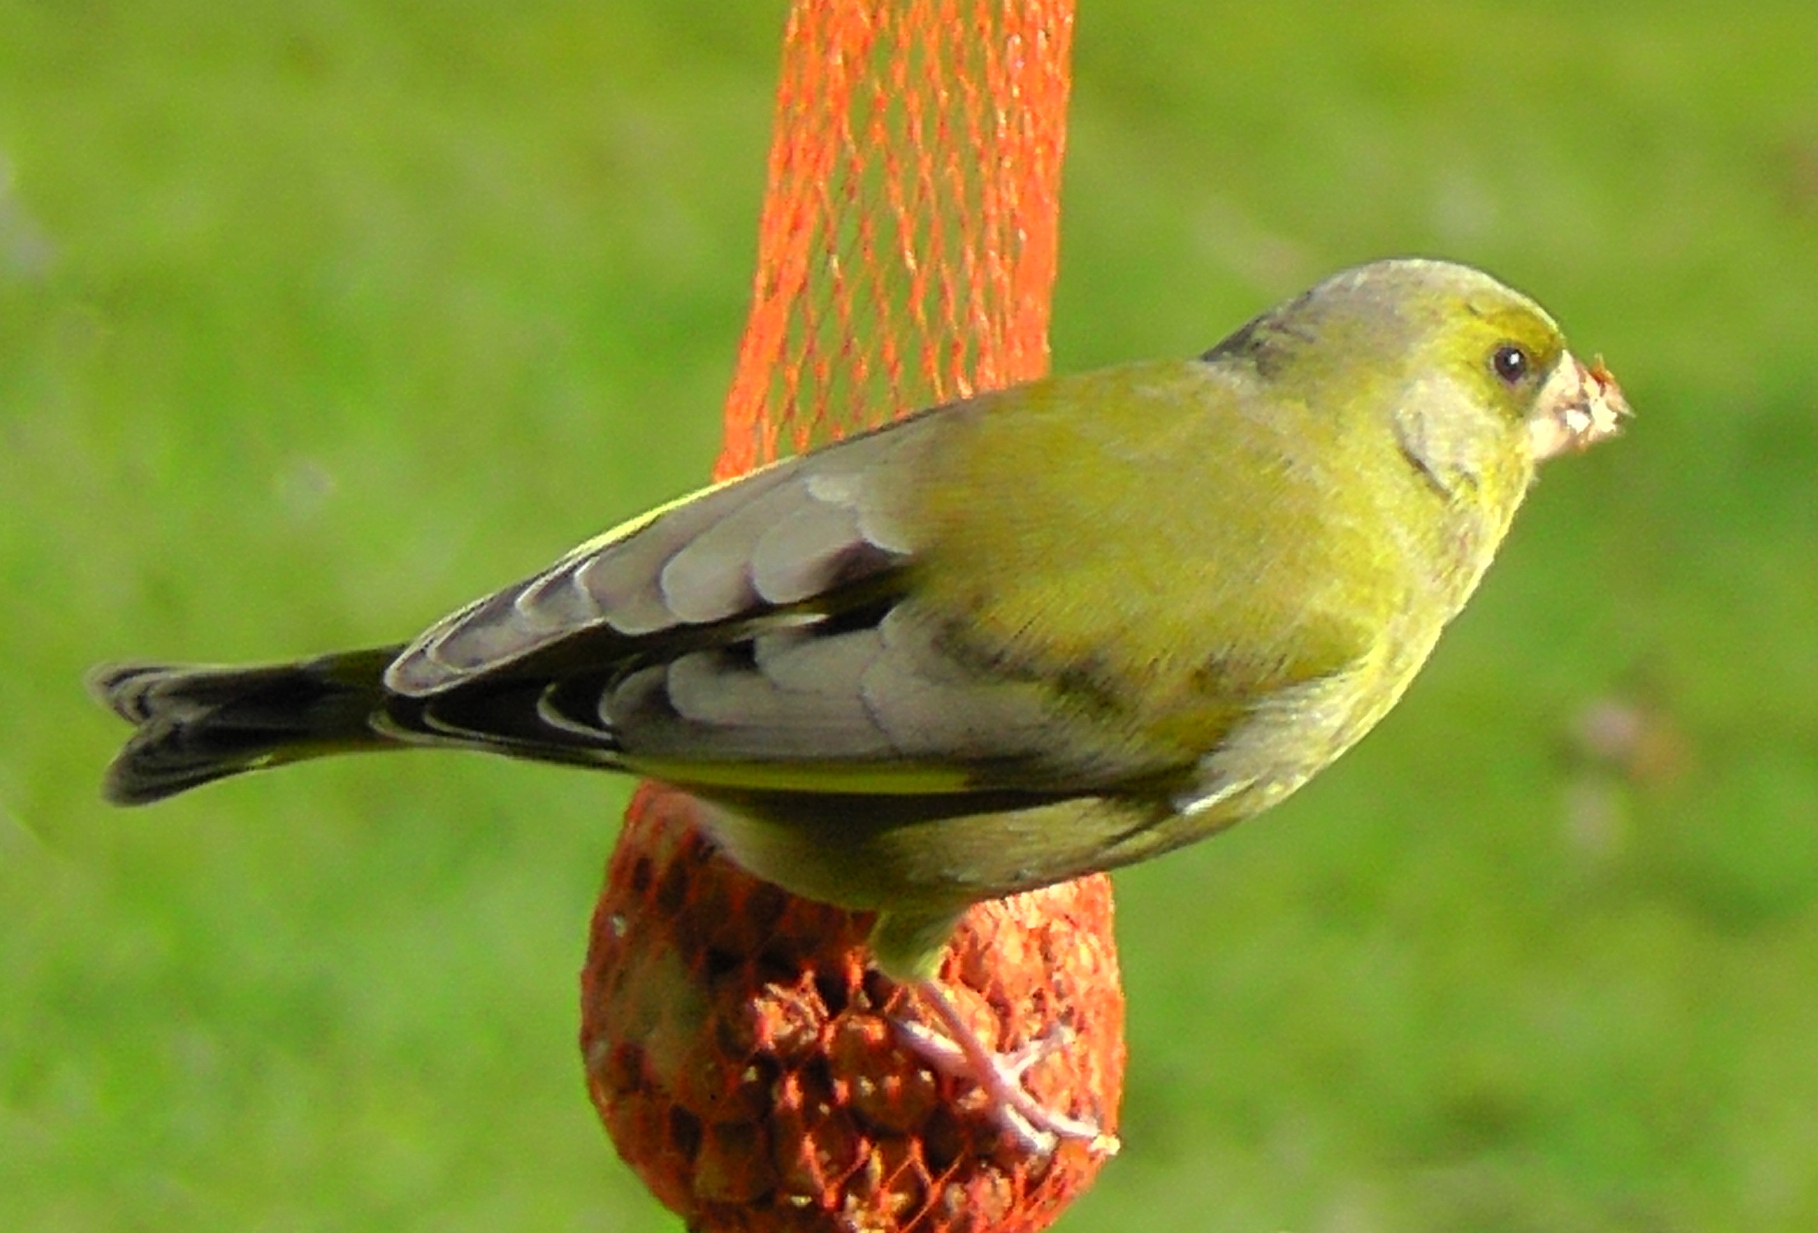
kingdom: Plantae
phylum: Tracheophyta
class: Liliopsida
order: Poales
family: Poaceae
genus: Chloris
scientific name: Chloris chloris
